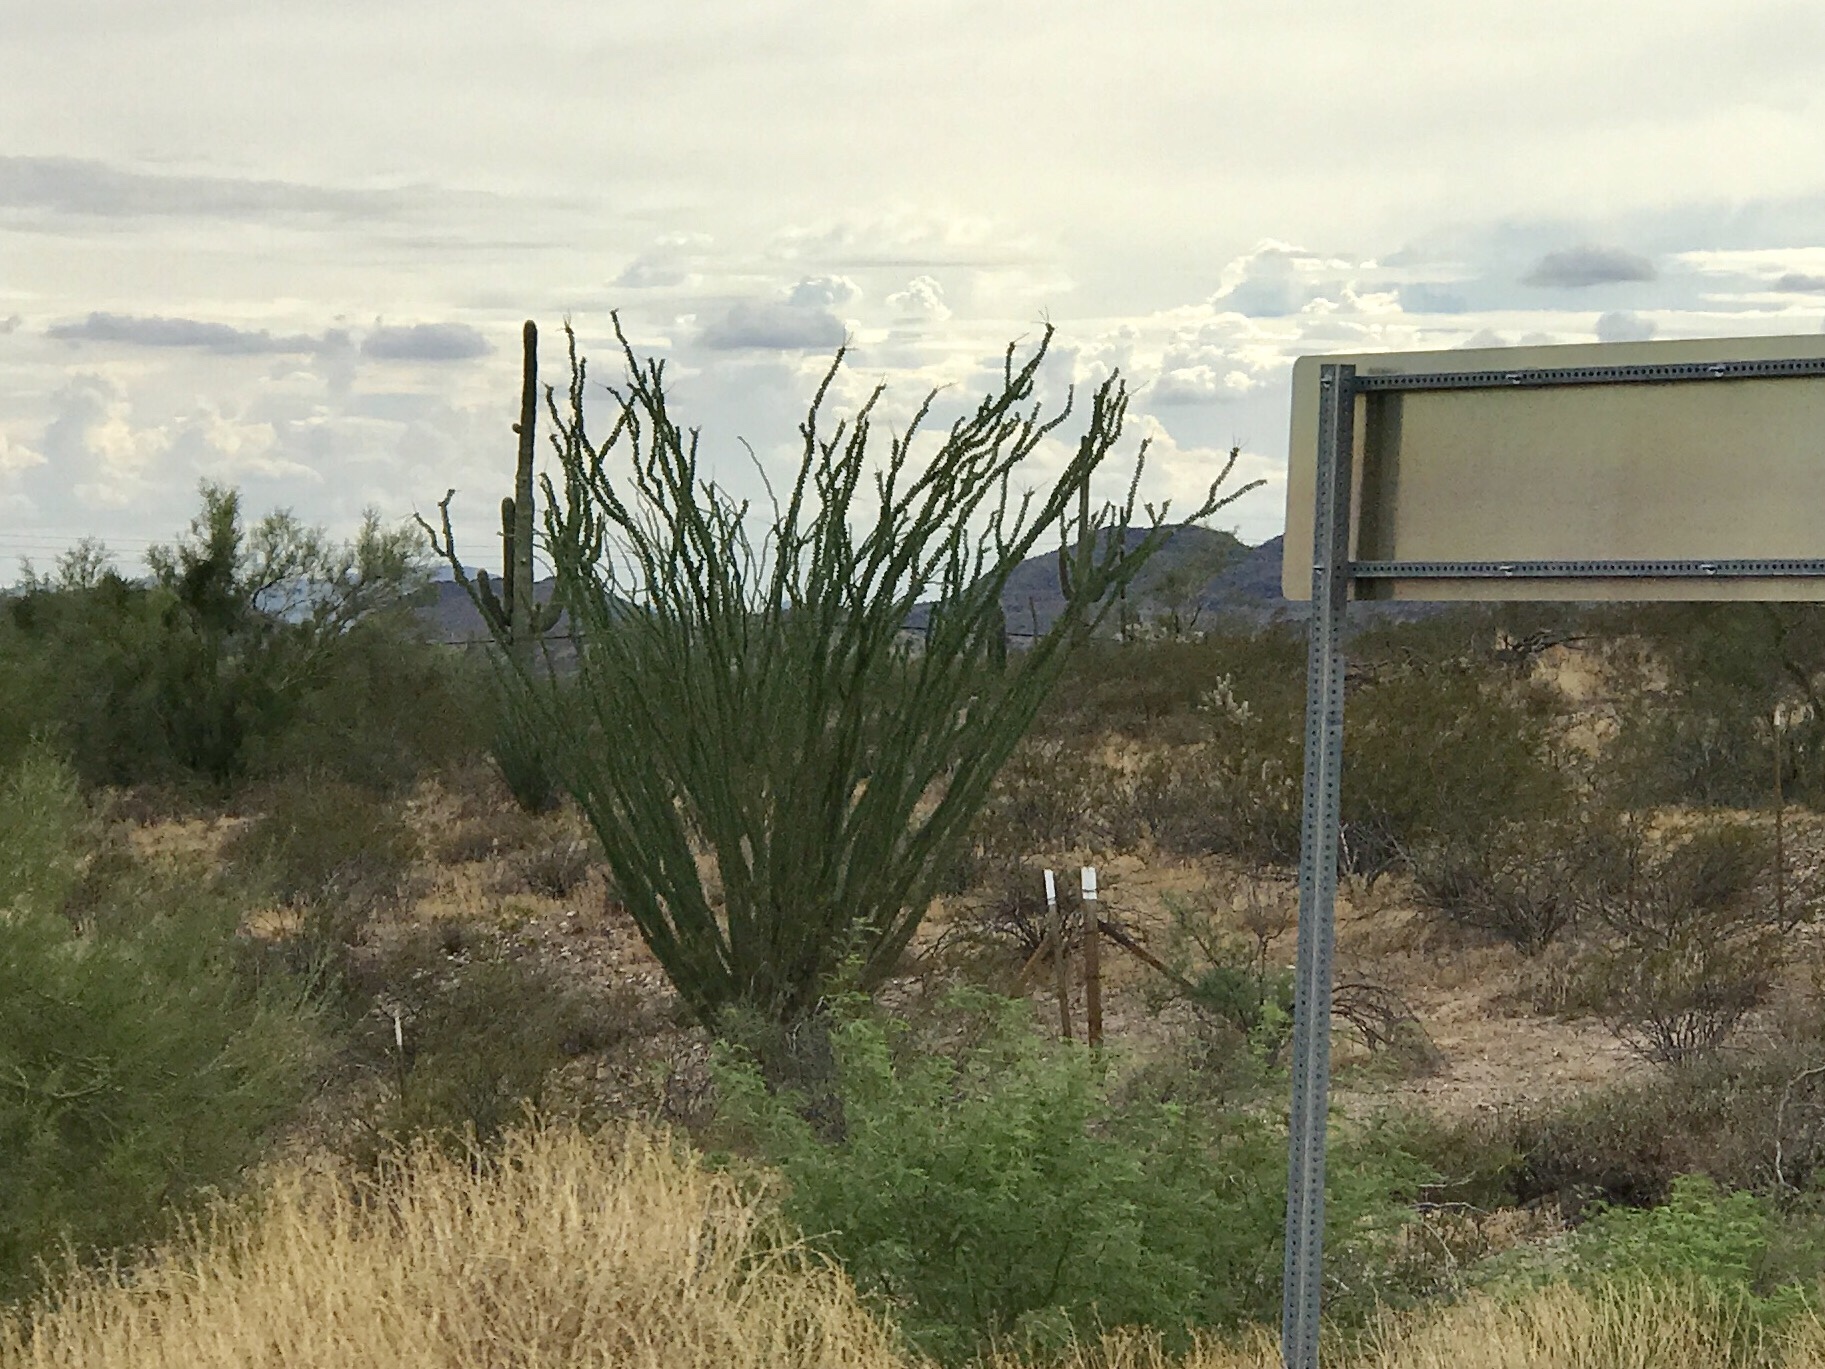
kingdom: Plantae
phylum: Tracheophyta
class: Magnoliopsida
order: Ericales
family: Fouquieriaceae
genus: Fouquieria
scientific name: Fouquieria splendens
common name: Vine-cactus
